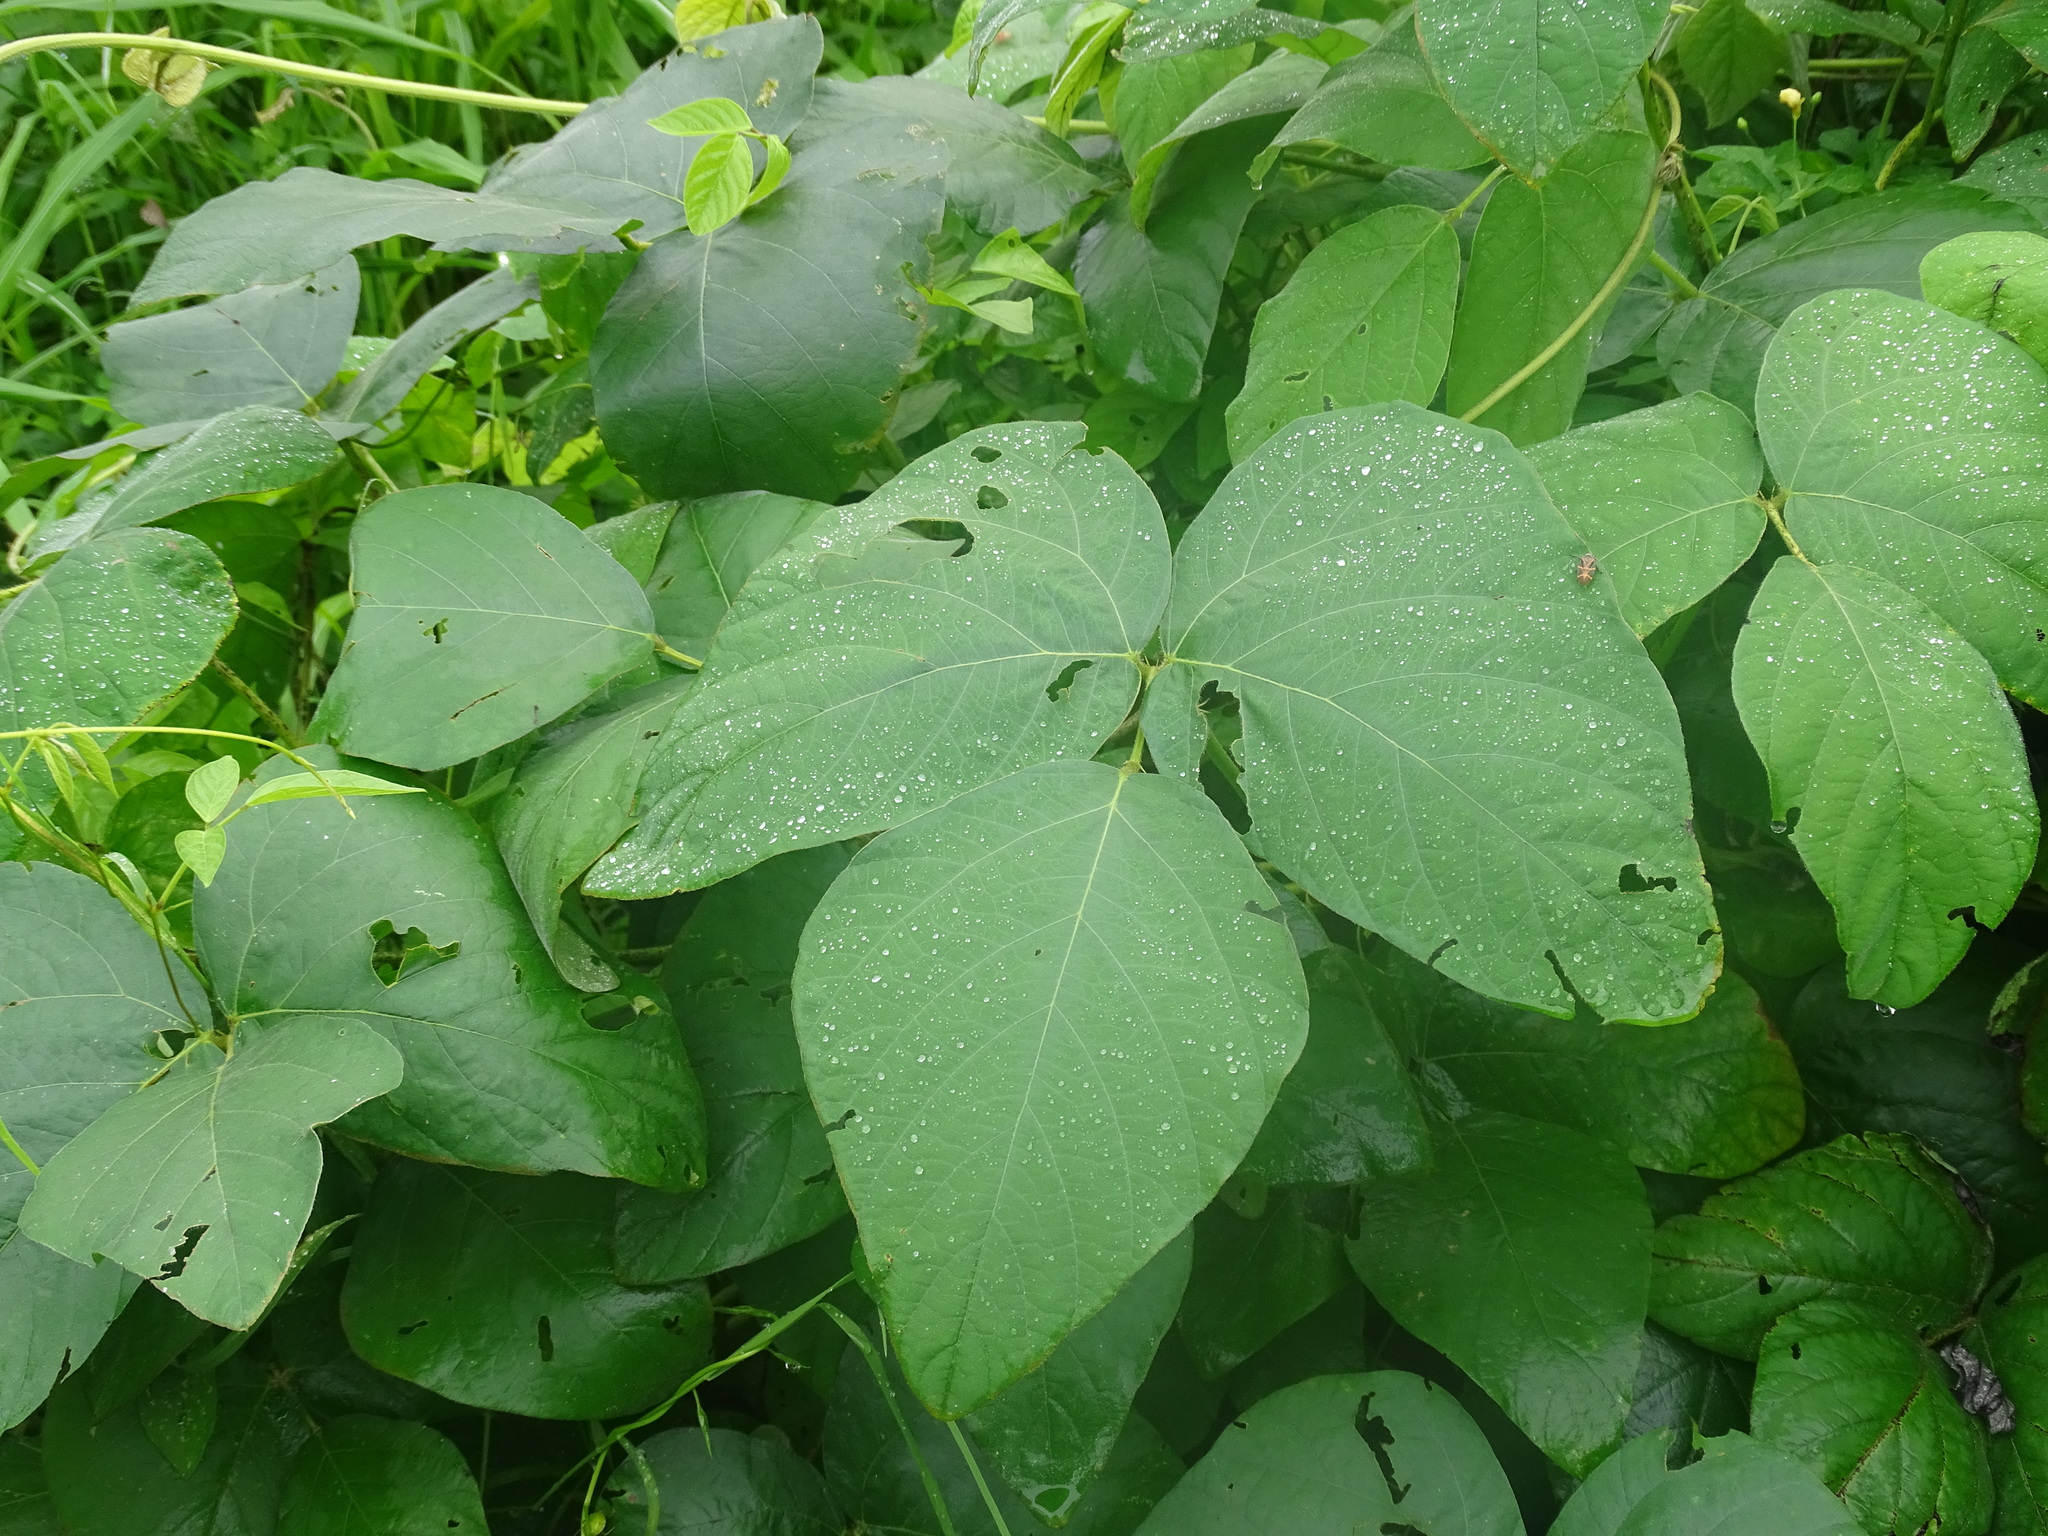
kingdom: Plantae
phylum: Tracheophyta
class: Magnoliopsida
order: Fabales
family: Fabaceae
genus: Mucuna
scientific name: Mucuna pruriens
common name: Cow-itch
